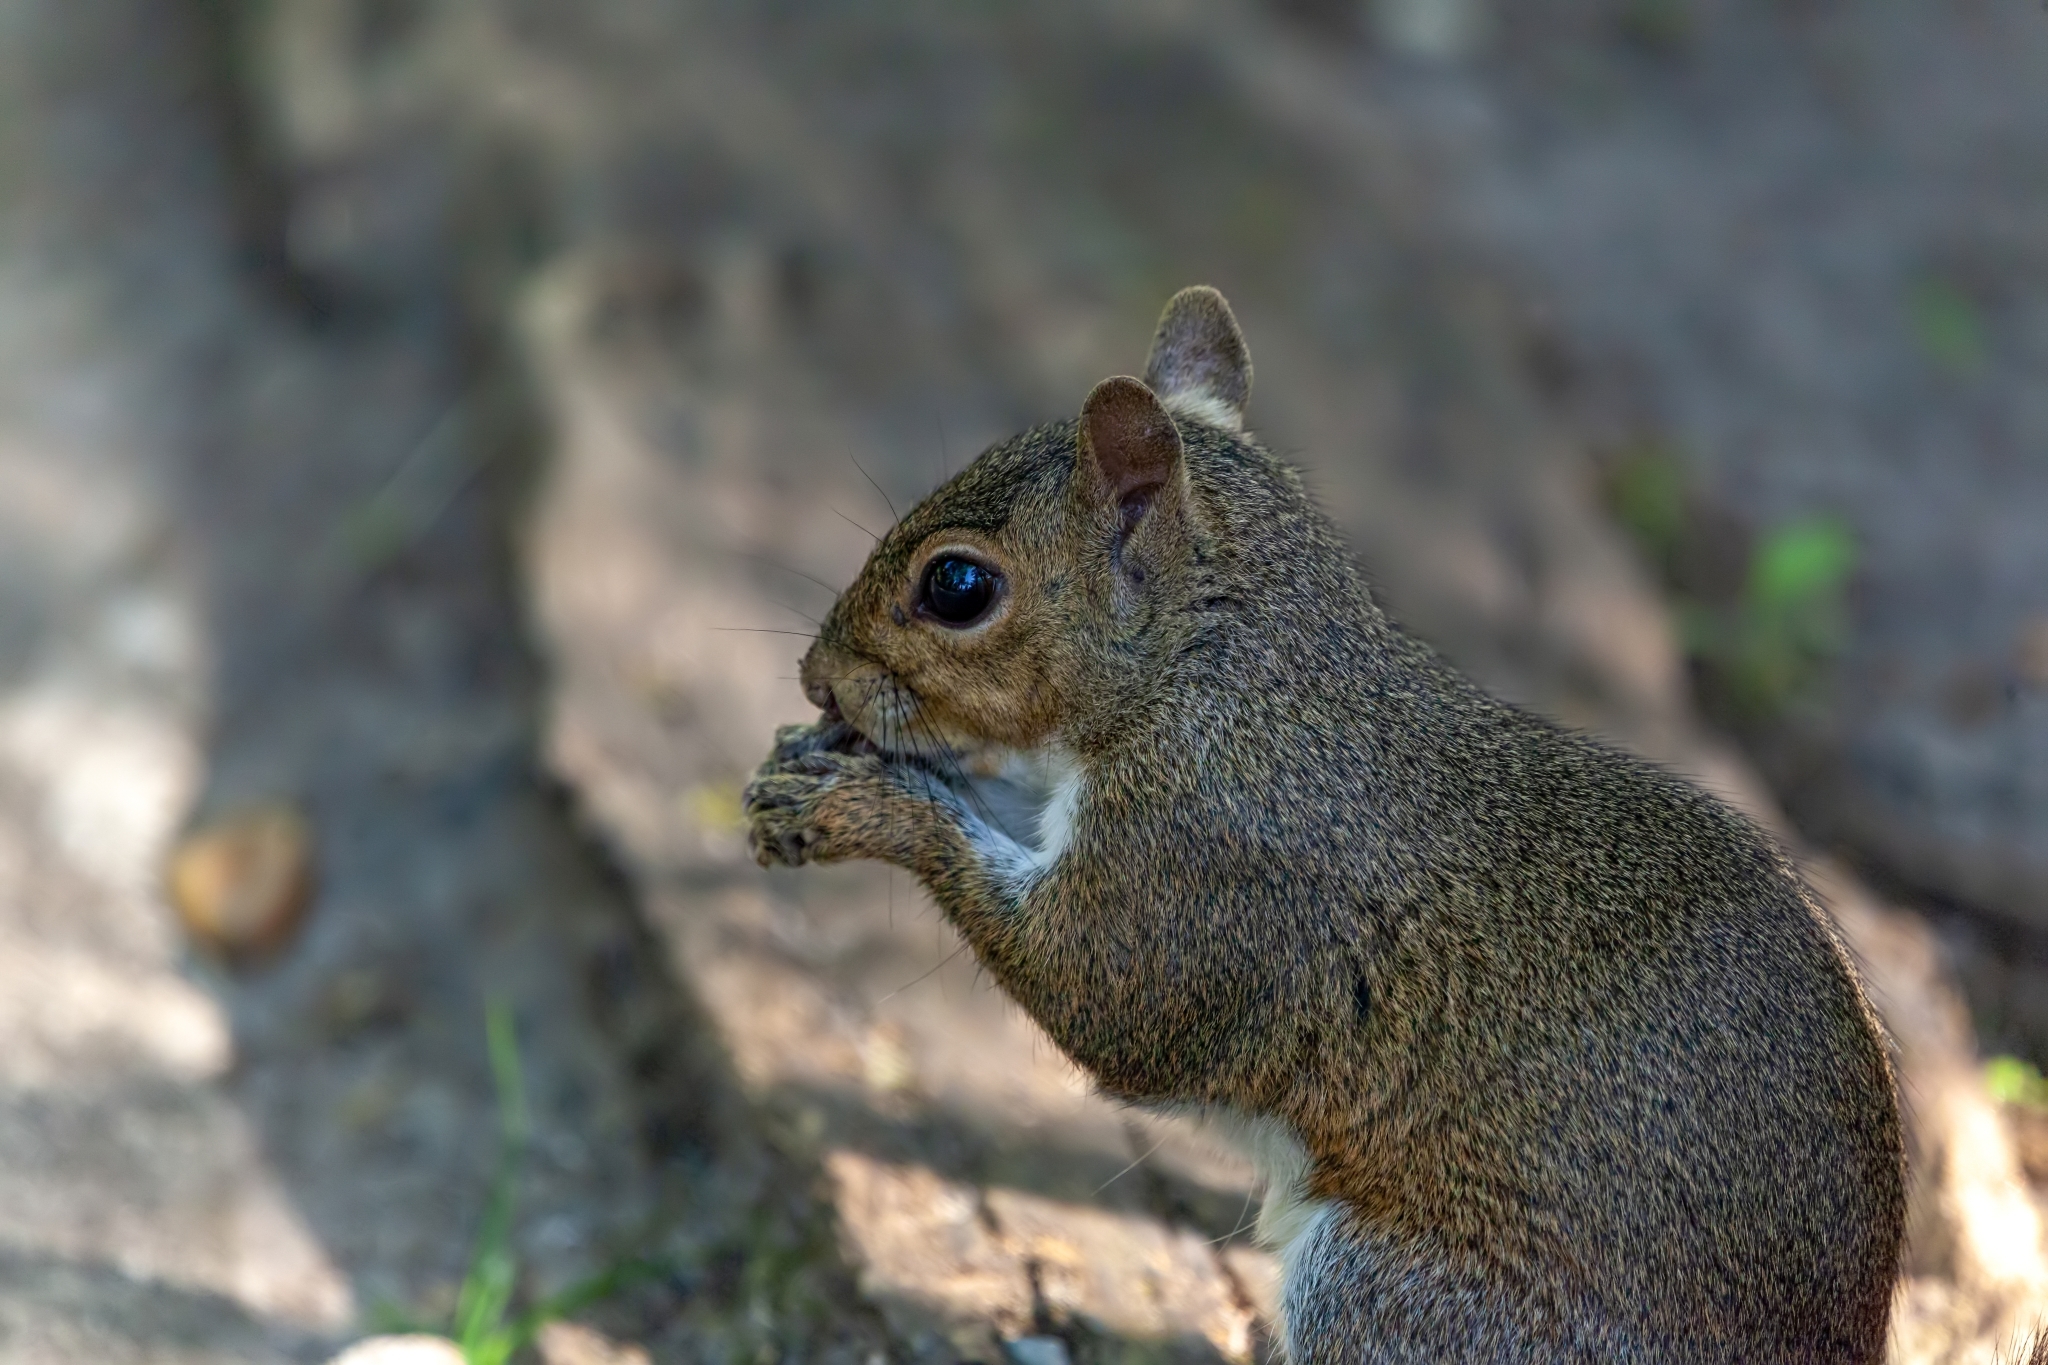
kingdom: Animalia
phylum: Chordata
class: Mammalia
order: Rodentia
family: Sciuridae
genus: Sciurus
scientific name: Sciurus carolinensis
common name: Eastern gray squirrel
